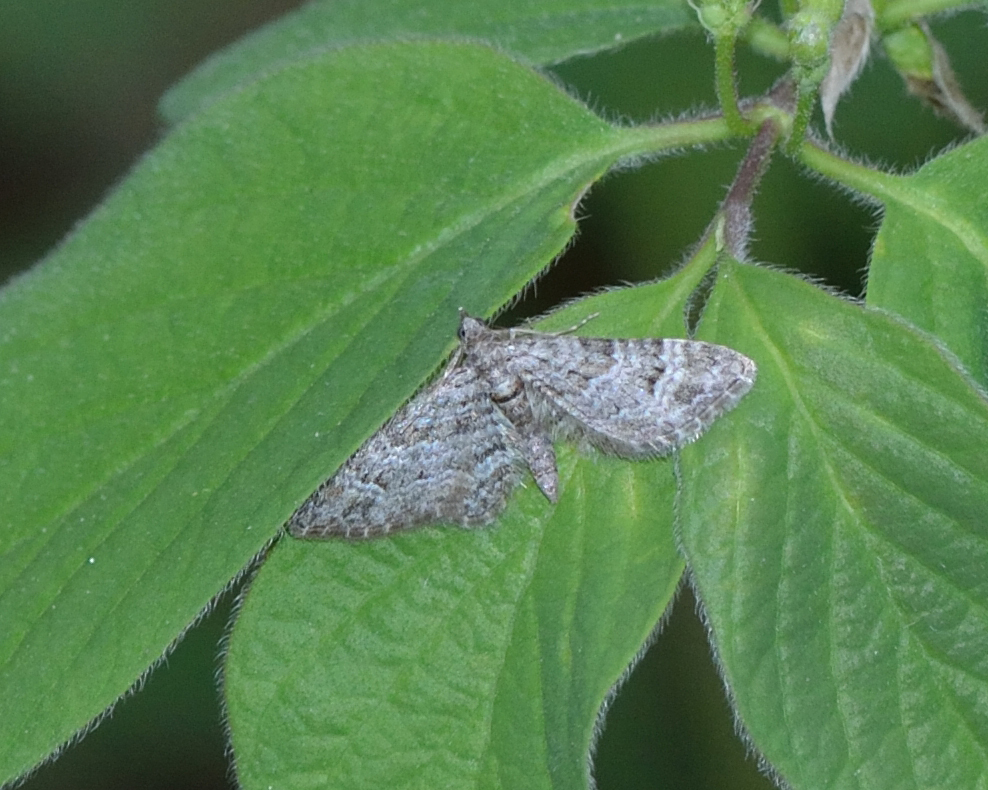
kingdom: Animalia
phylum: Arthropoda
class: Insecta
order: Lepidoptera
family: Geometridae
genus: Gymnoscelis
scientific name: Gymnoscelis rufifasciata
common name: Double-striped pug
